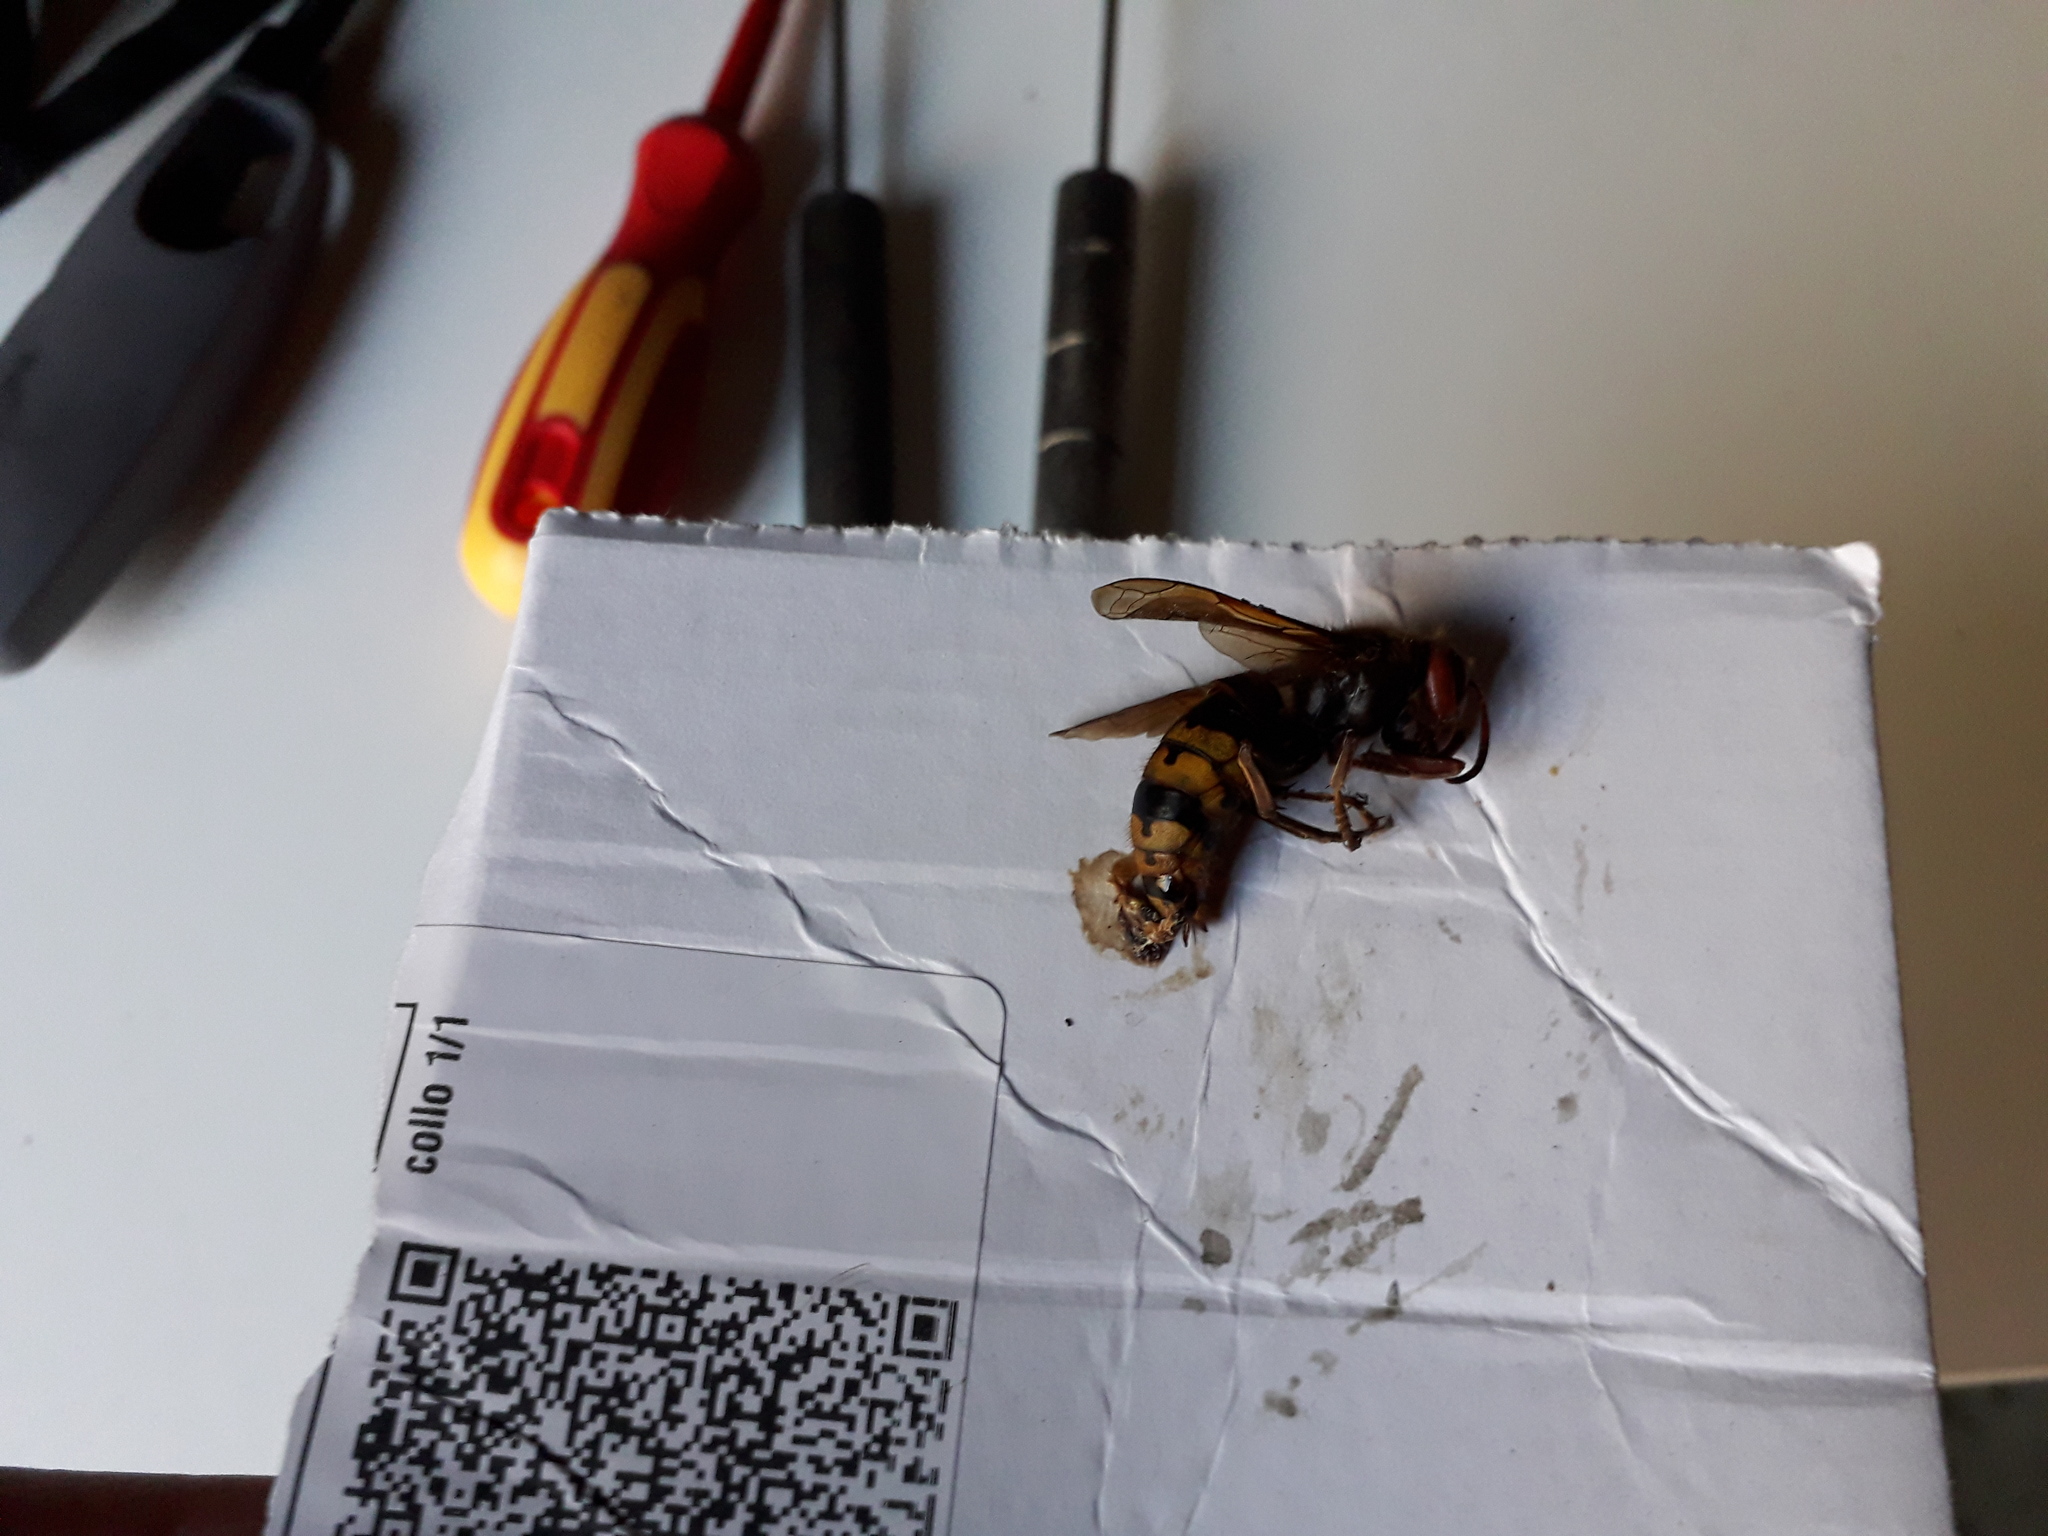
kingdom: Animalia
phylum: Arthropoda
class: Insecta
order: Hymenoptera
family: Vespidae
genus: Vespa
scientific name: Vespa crabro
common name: Hornet
